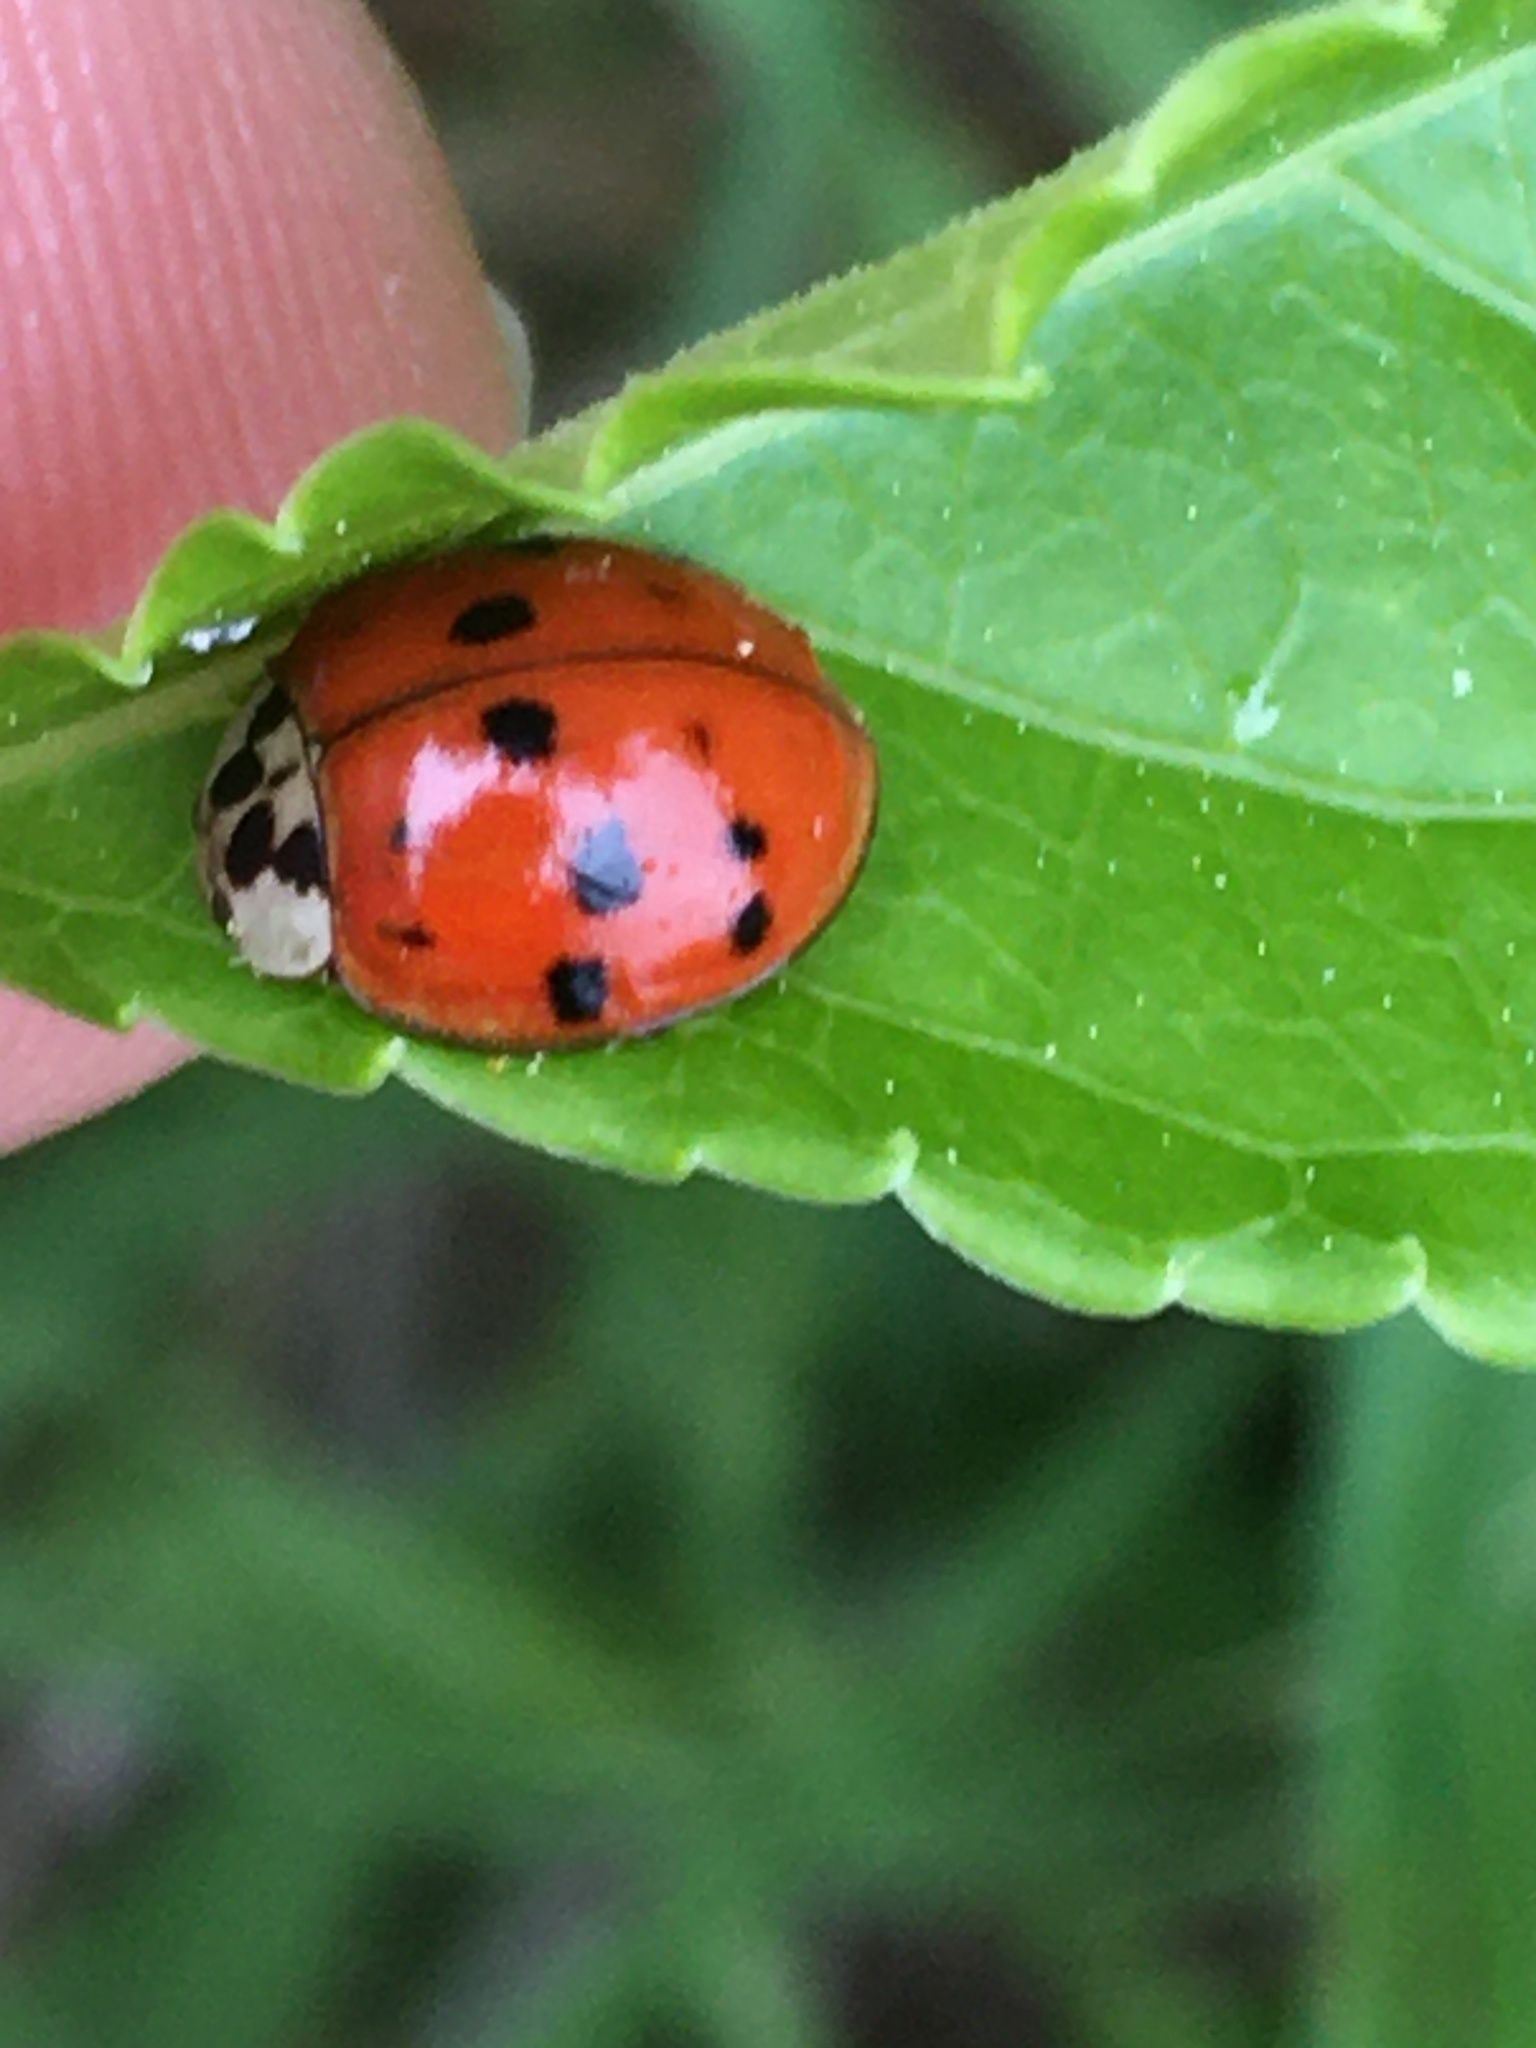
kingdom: Animalia
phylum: Arthropoda
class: Insecta
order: Coleoptera
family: Coccinellidae
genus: Harmonia
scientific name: Harmonia axyridis
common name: Harlequin ladybird
